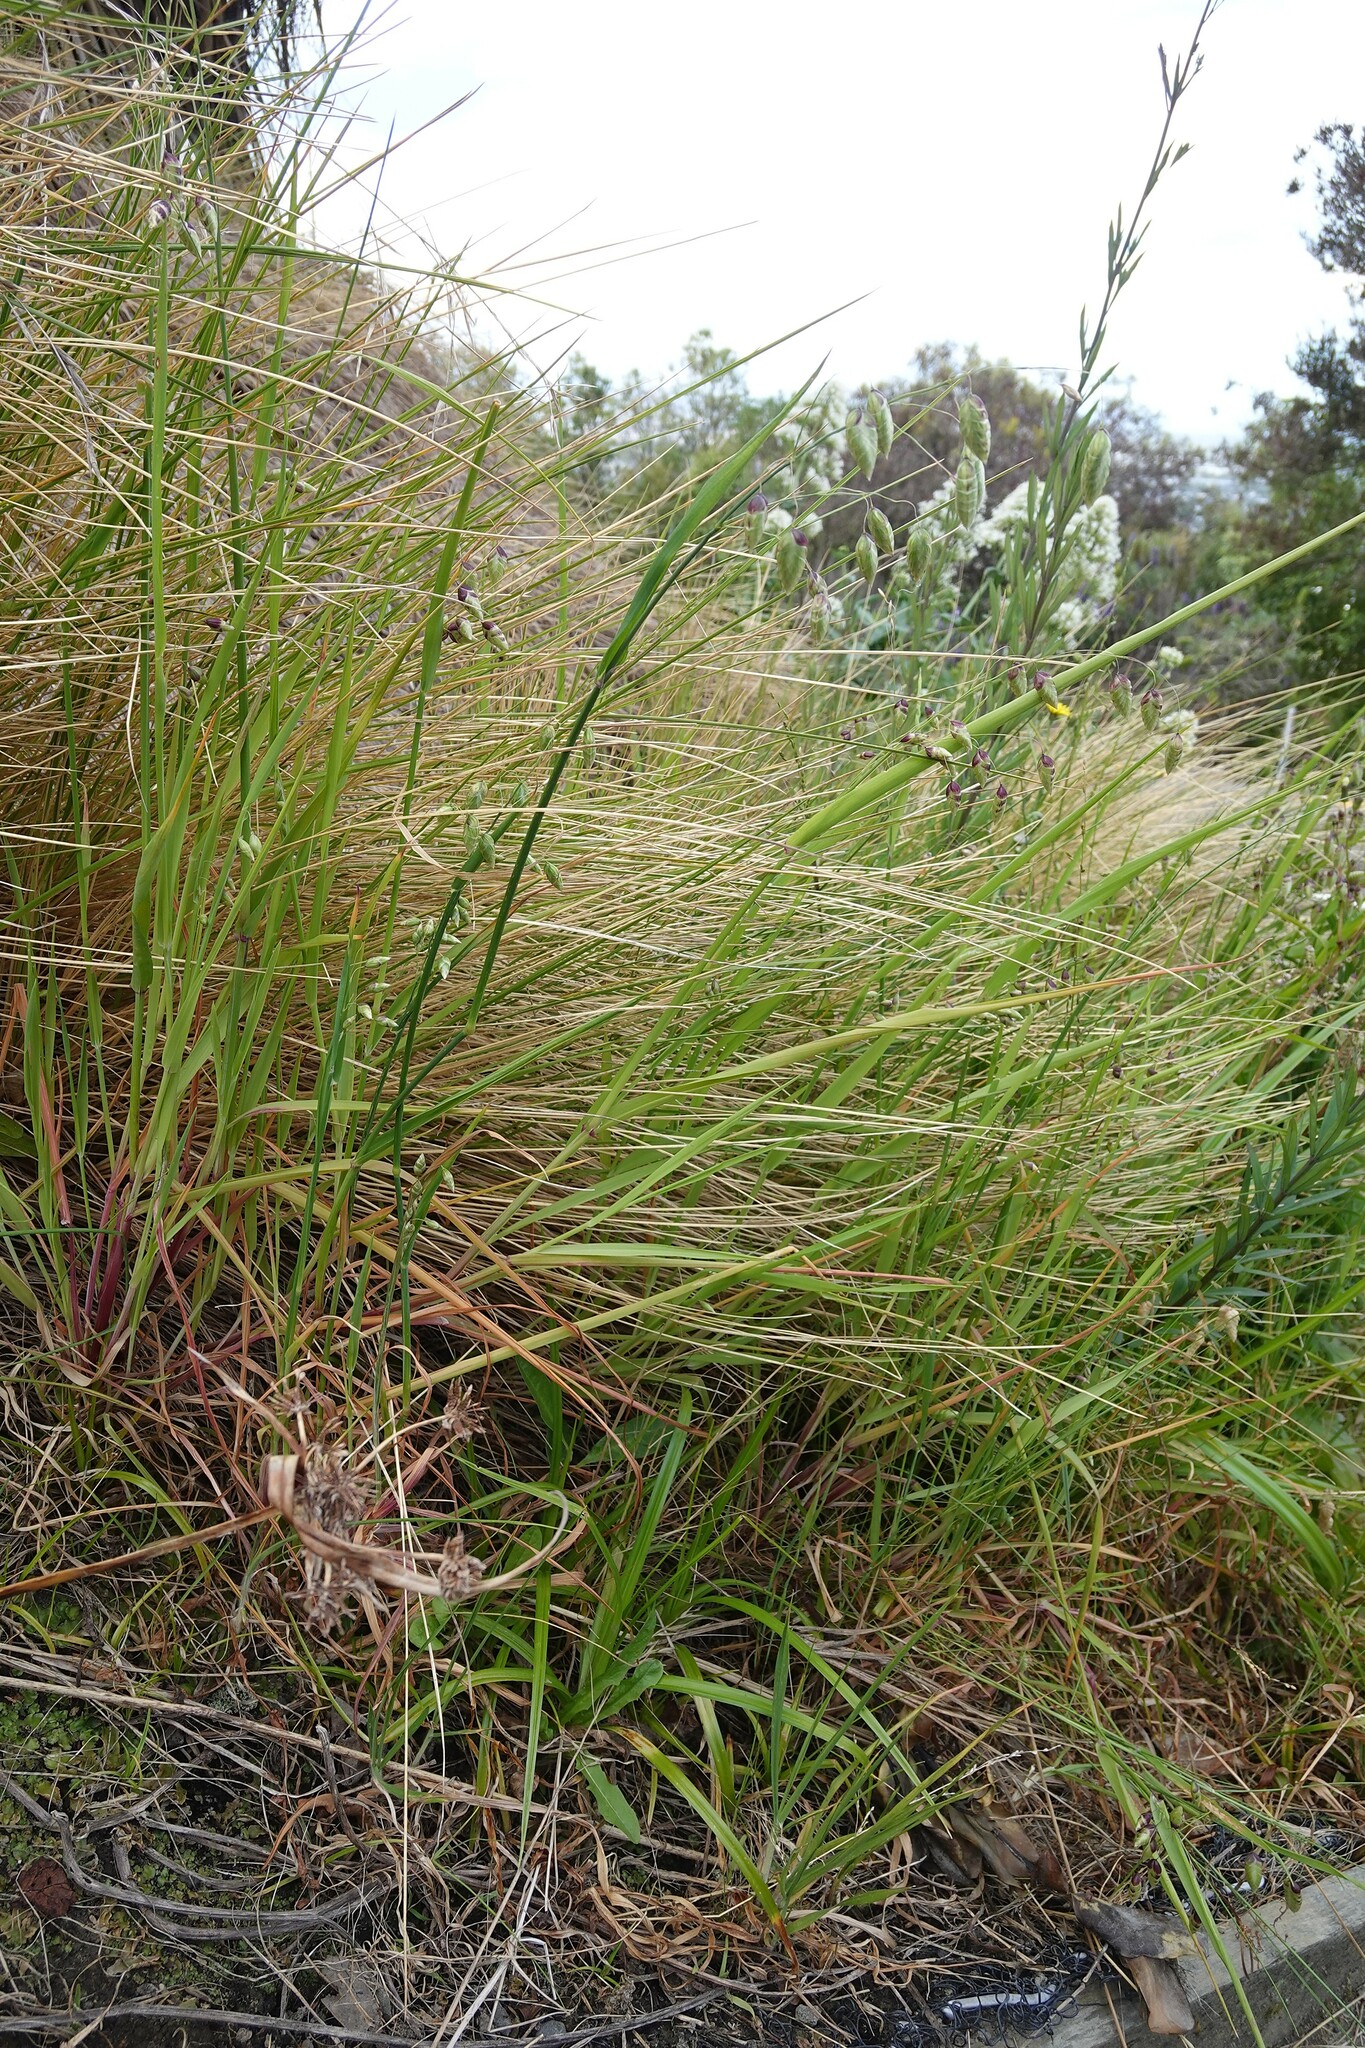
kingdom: Plantae
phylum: Tracheophyta
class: Liliopsida
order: Poales
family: Poaceae
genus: Briza
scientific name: Briza maxima
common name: Big quakinggrass
